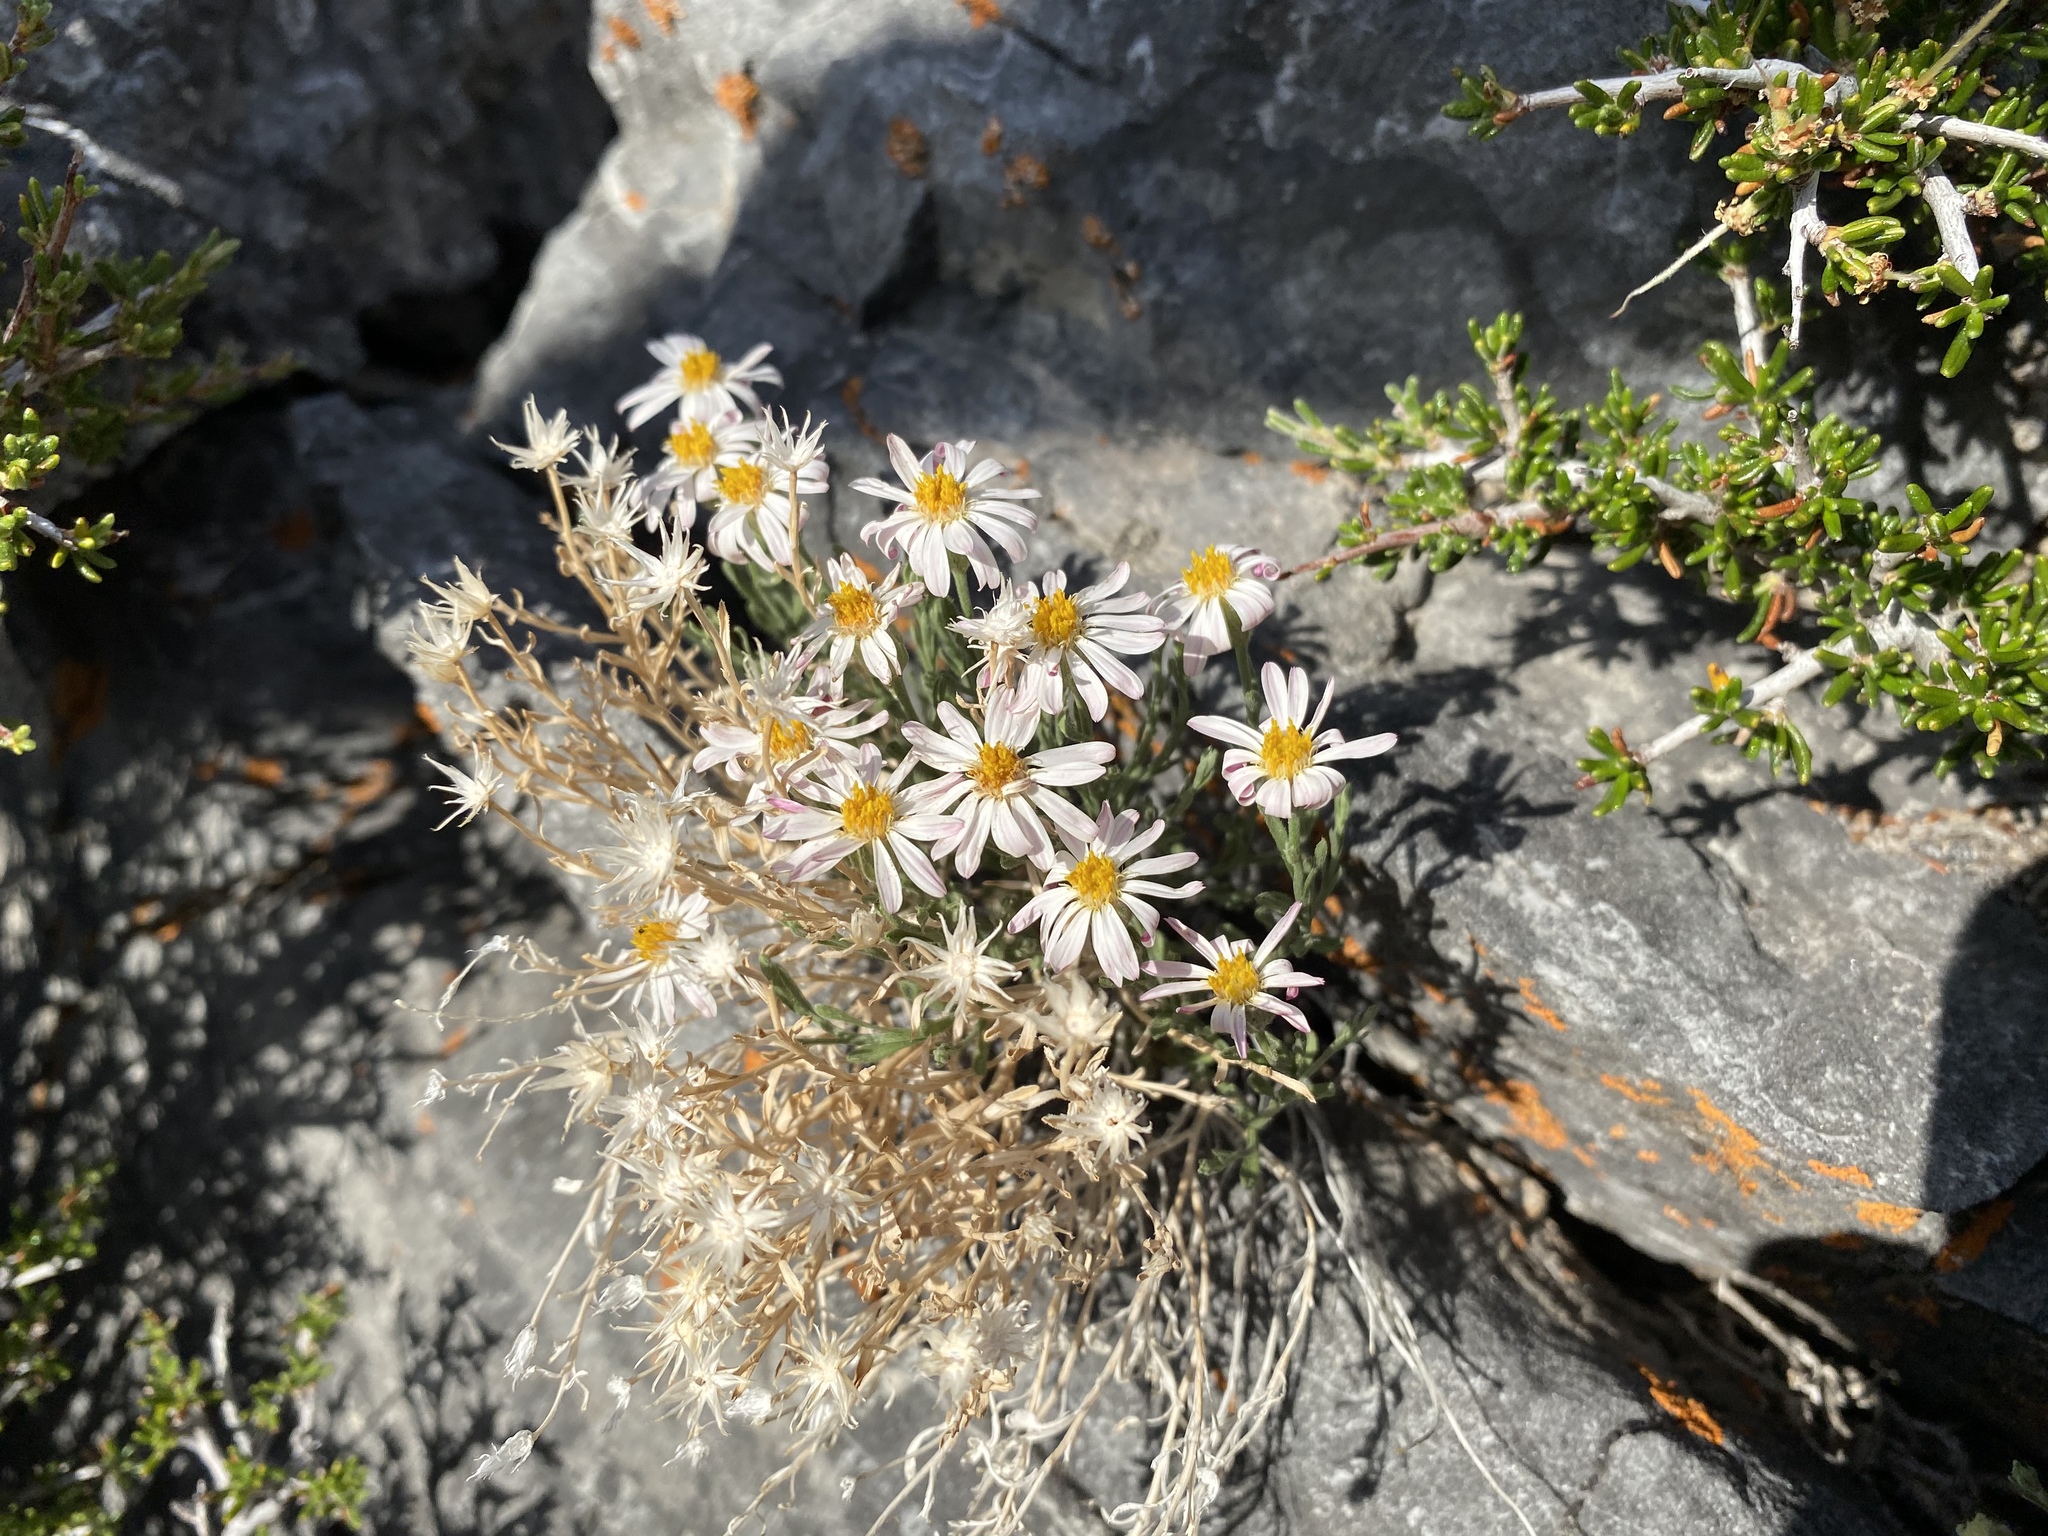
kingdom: Plantae
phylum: Tracheophyta
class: Magnoliopsida
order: Asterales
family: Asteraceae
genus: Chaetopappa
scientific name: Chaetopappa ericoides
